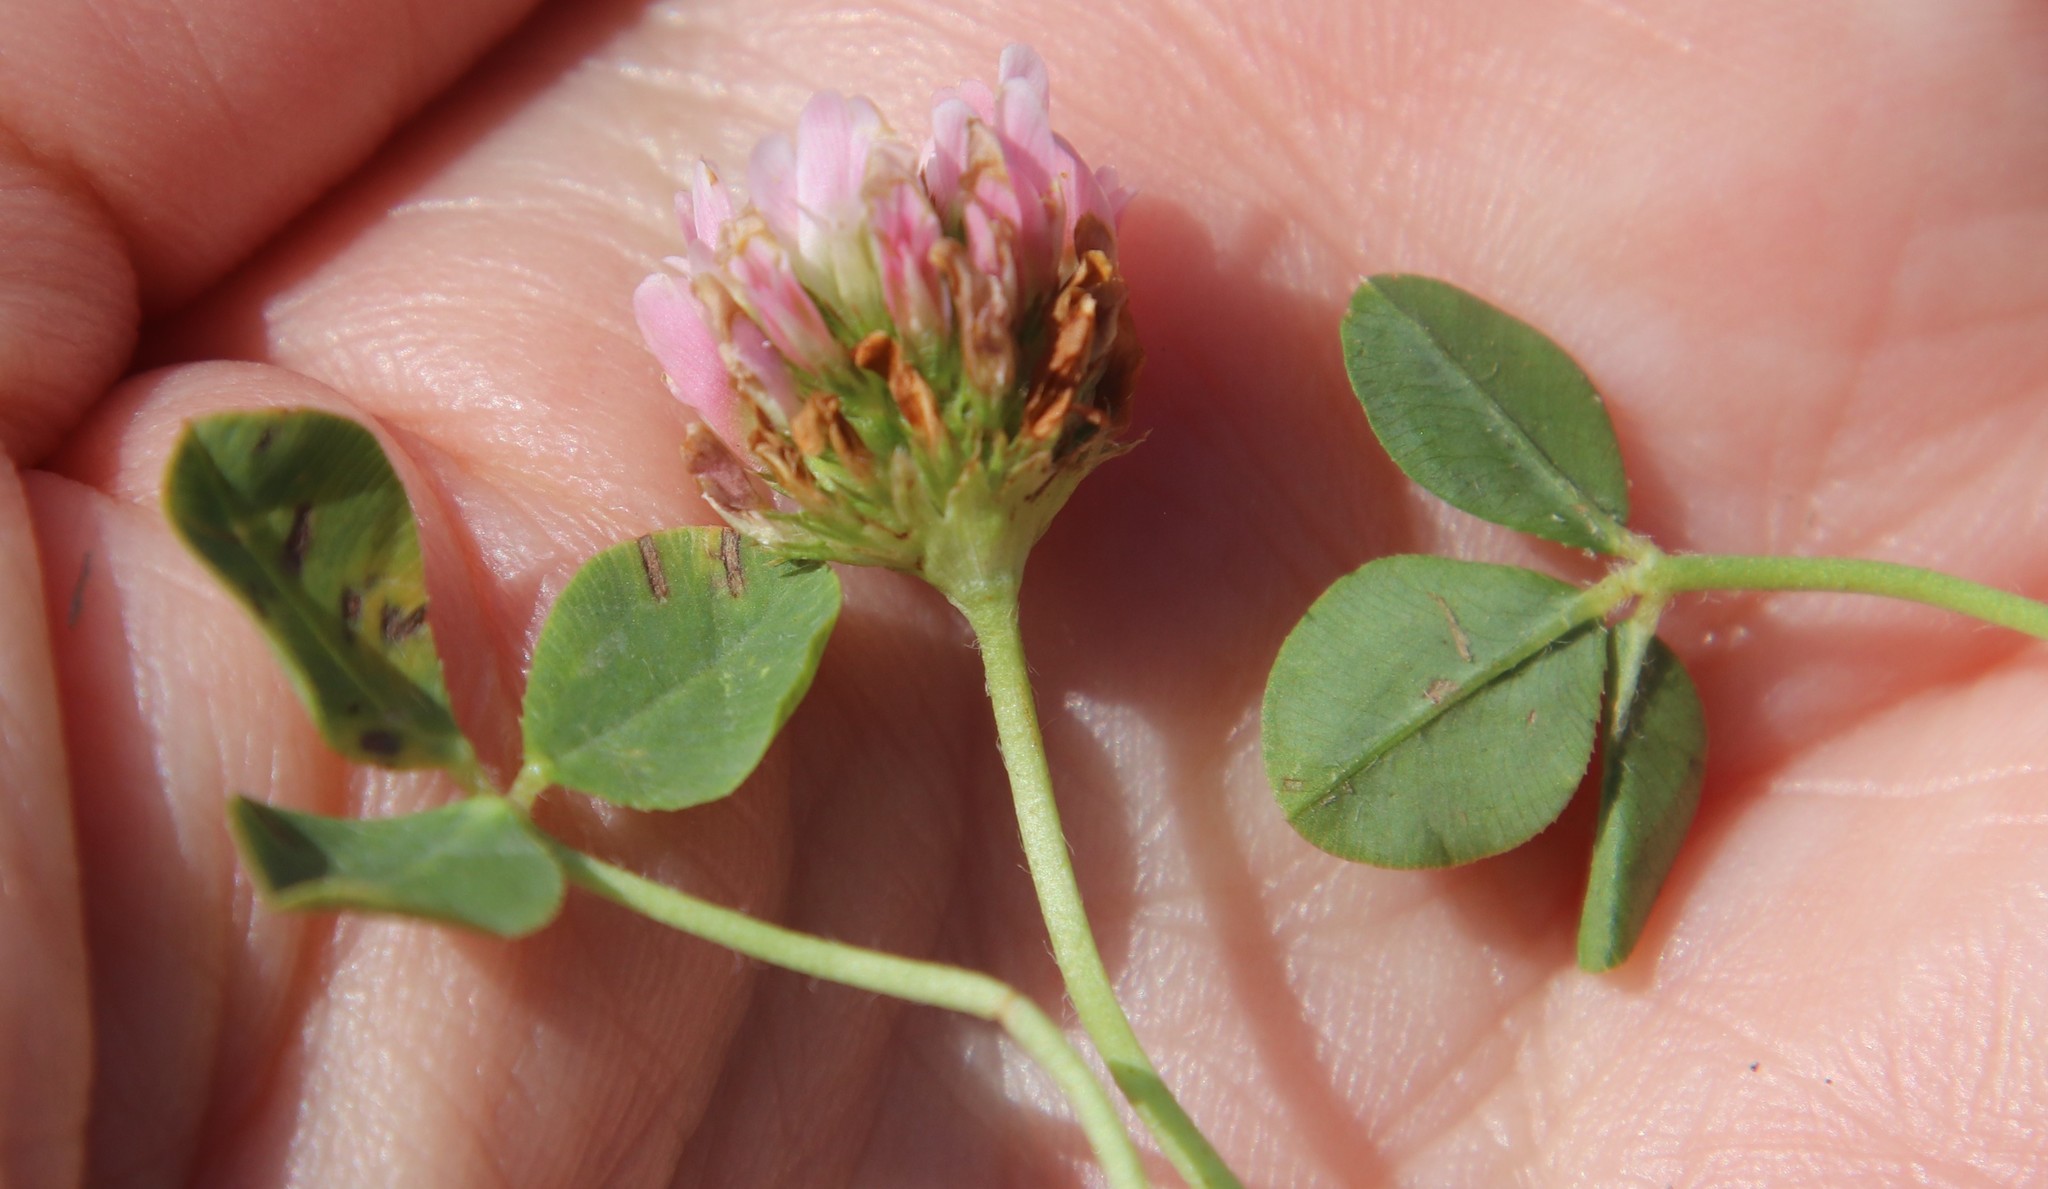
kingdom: Plantae
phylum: Tracheophyta
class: Magnoliopsida
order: Fabales
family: Fabaceae
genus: Trifolium
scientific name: Trifolium fragiferum
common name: Strawberry clover
